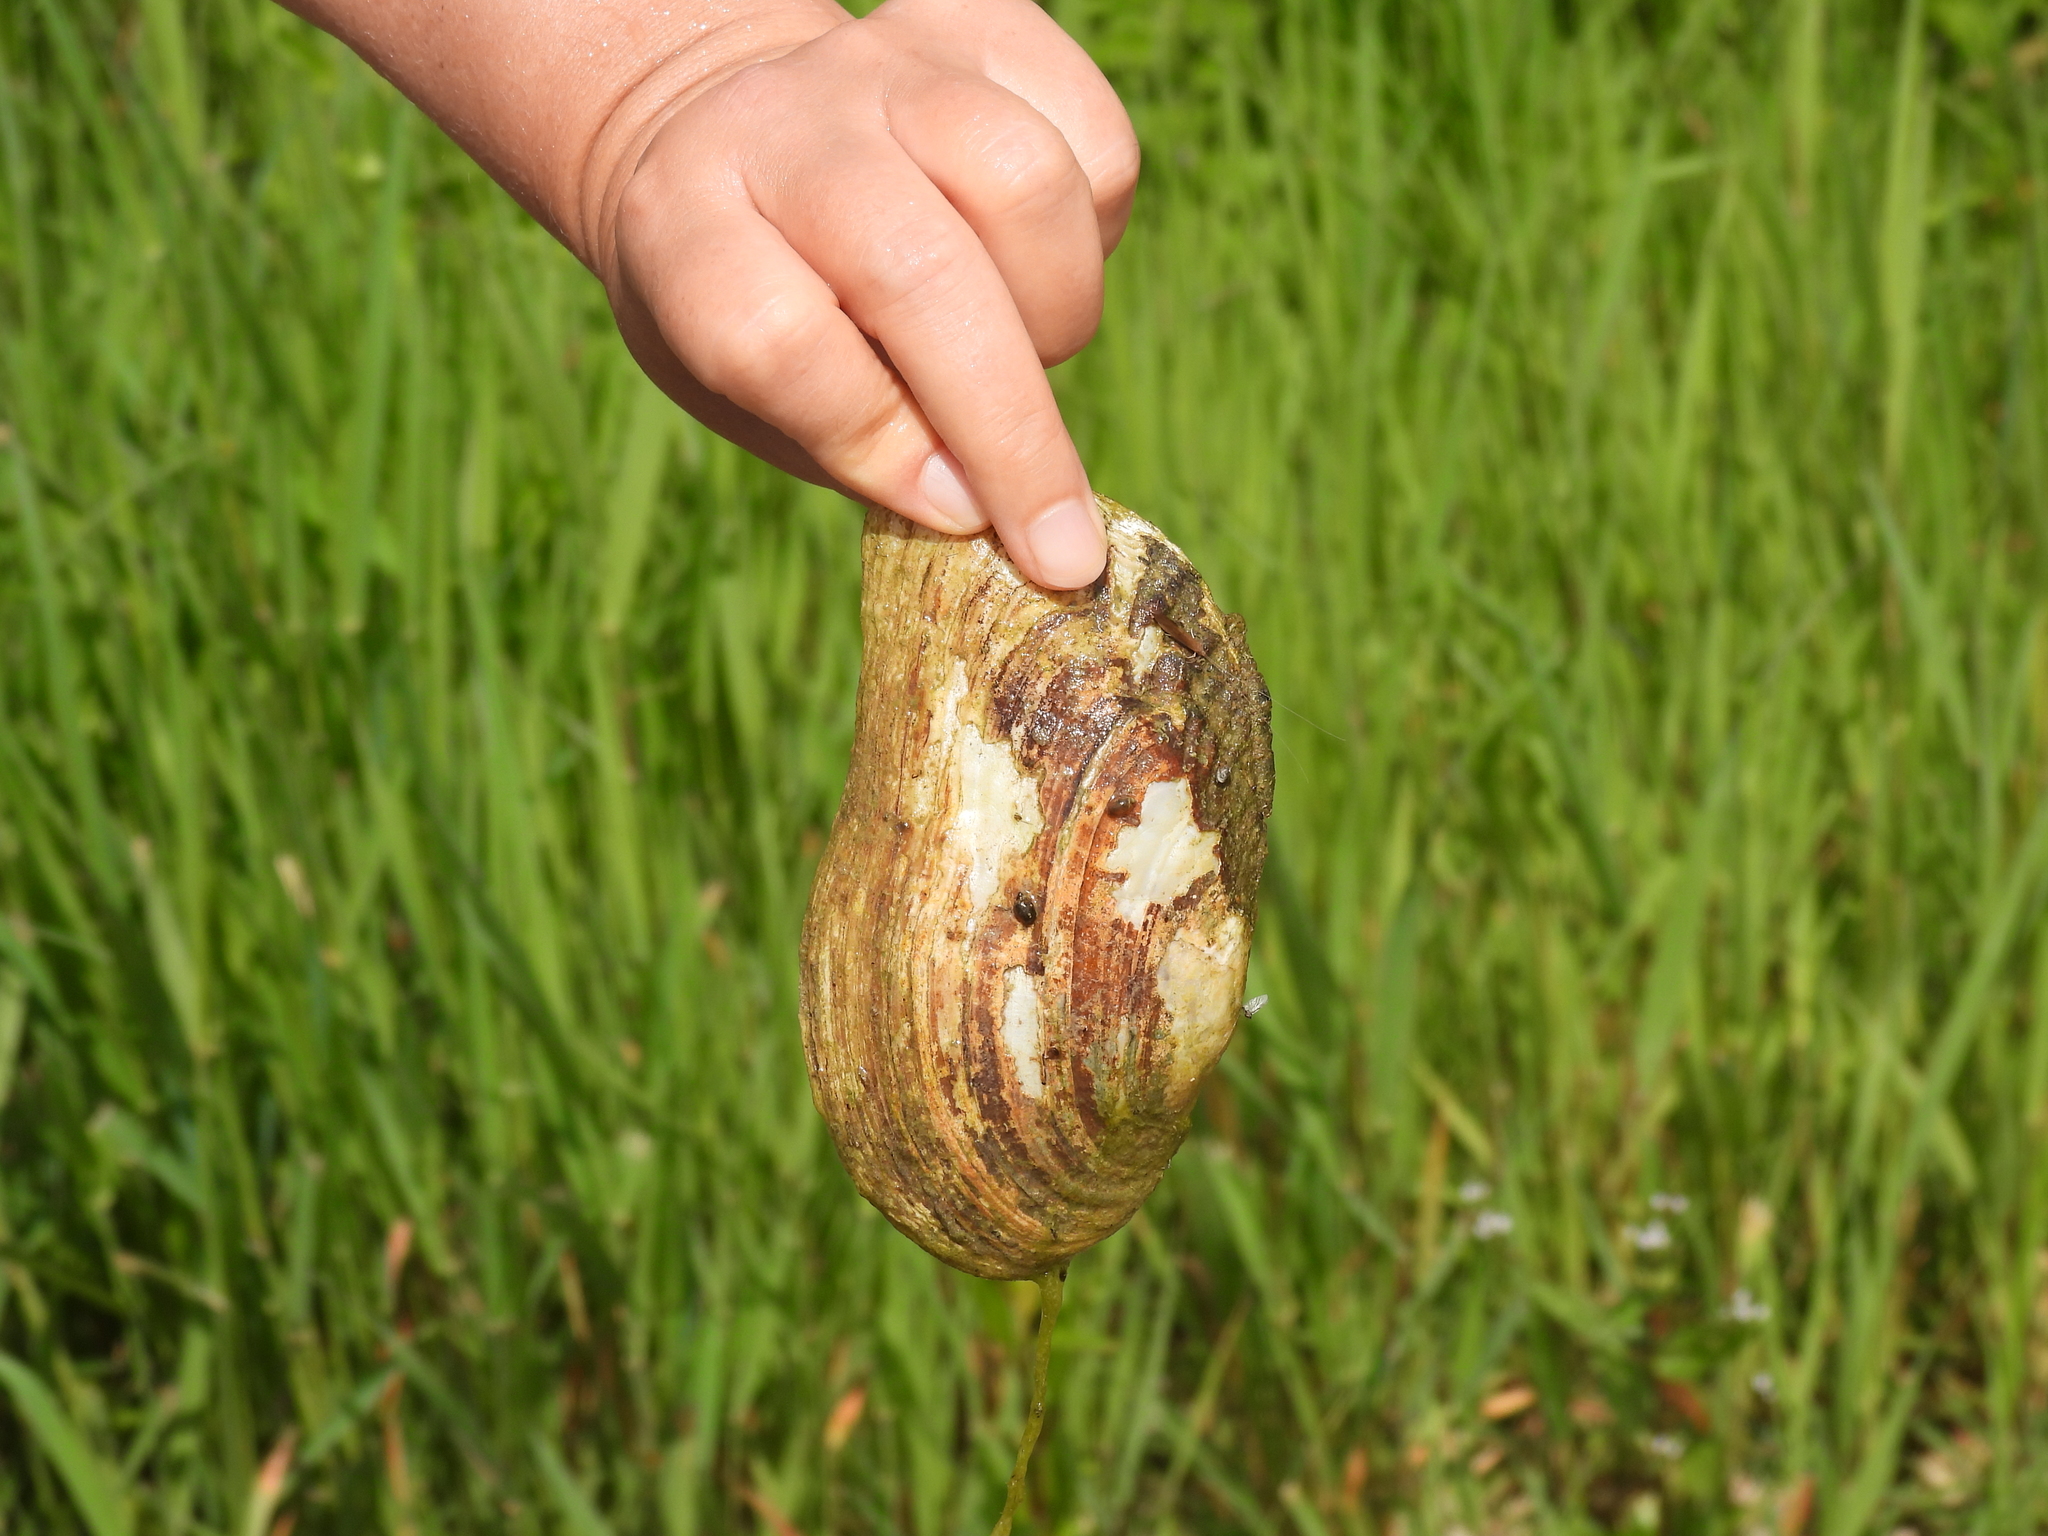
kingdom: Animalia
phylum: Mollusca
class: Bivalvia
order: Unionida
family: Unionidae
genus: Lasmigona
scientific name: Lasmigona costata
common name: Flutedshell
